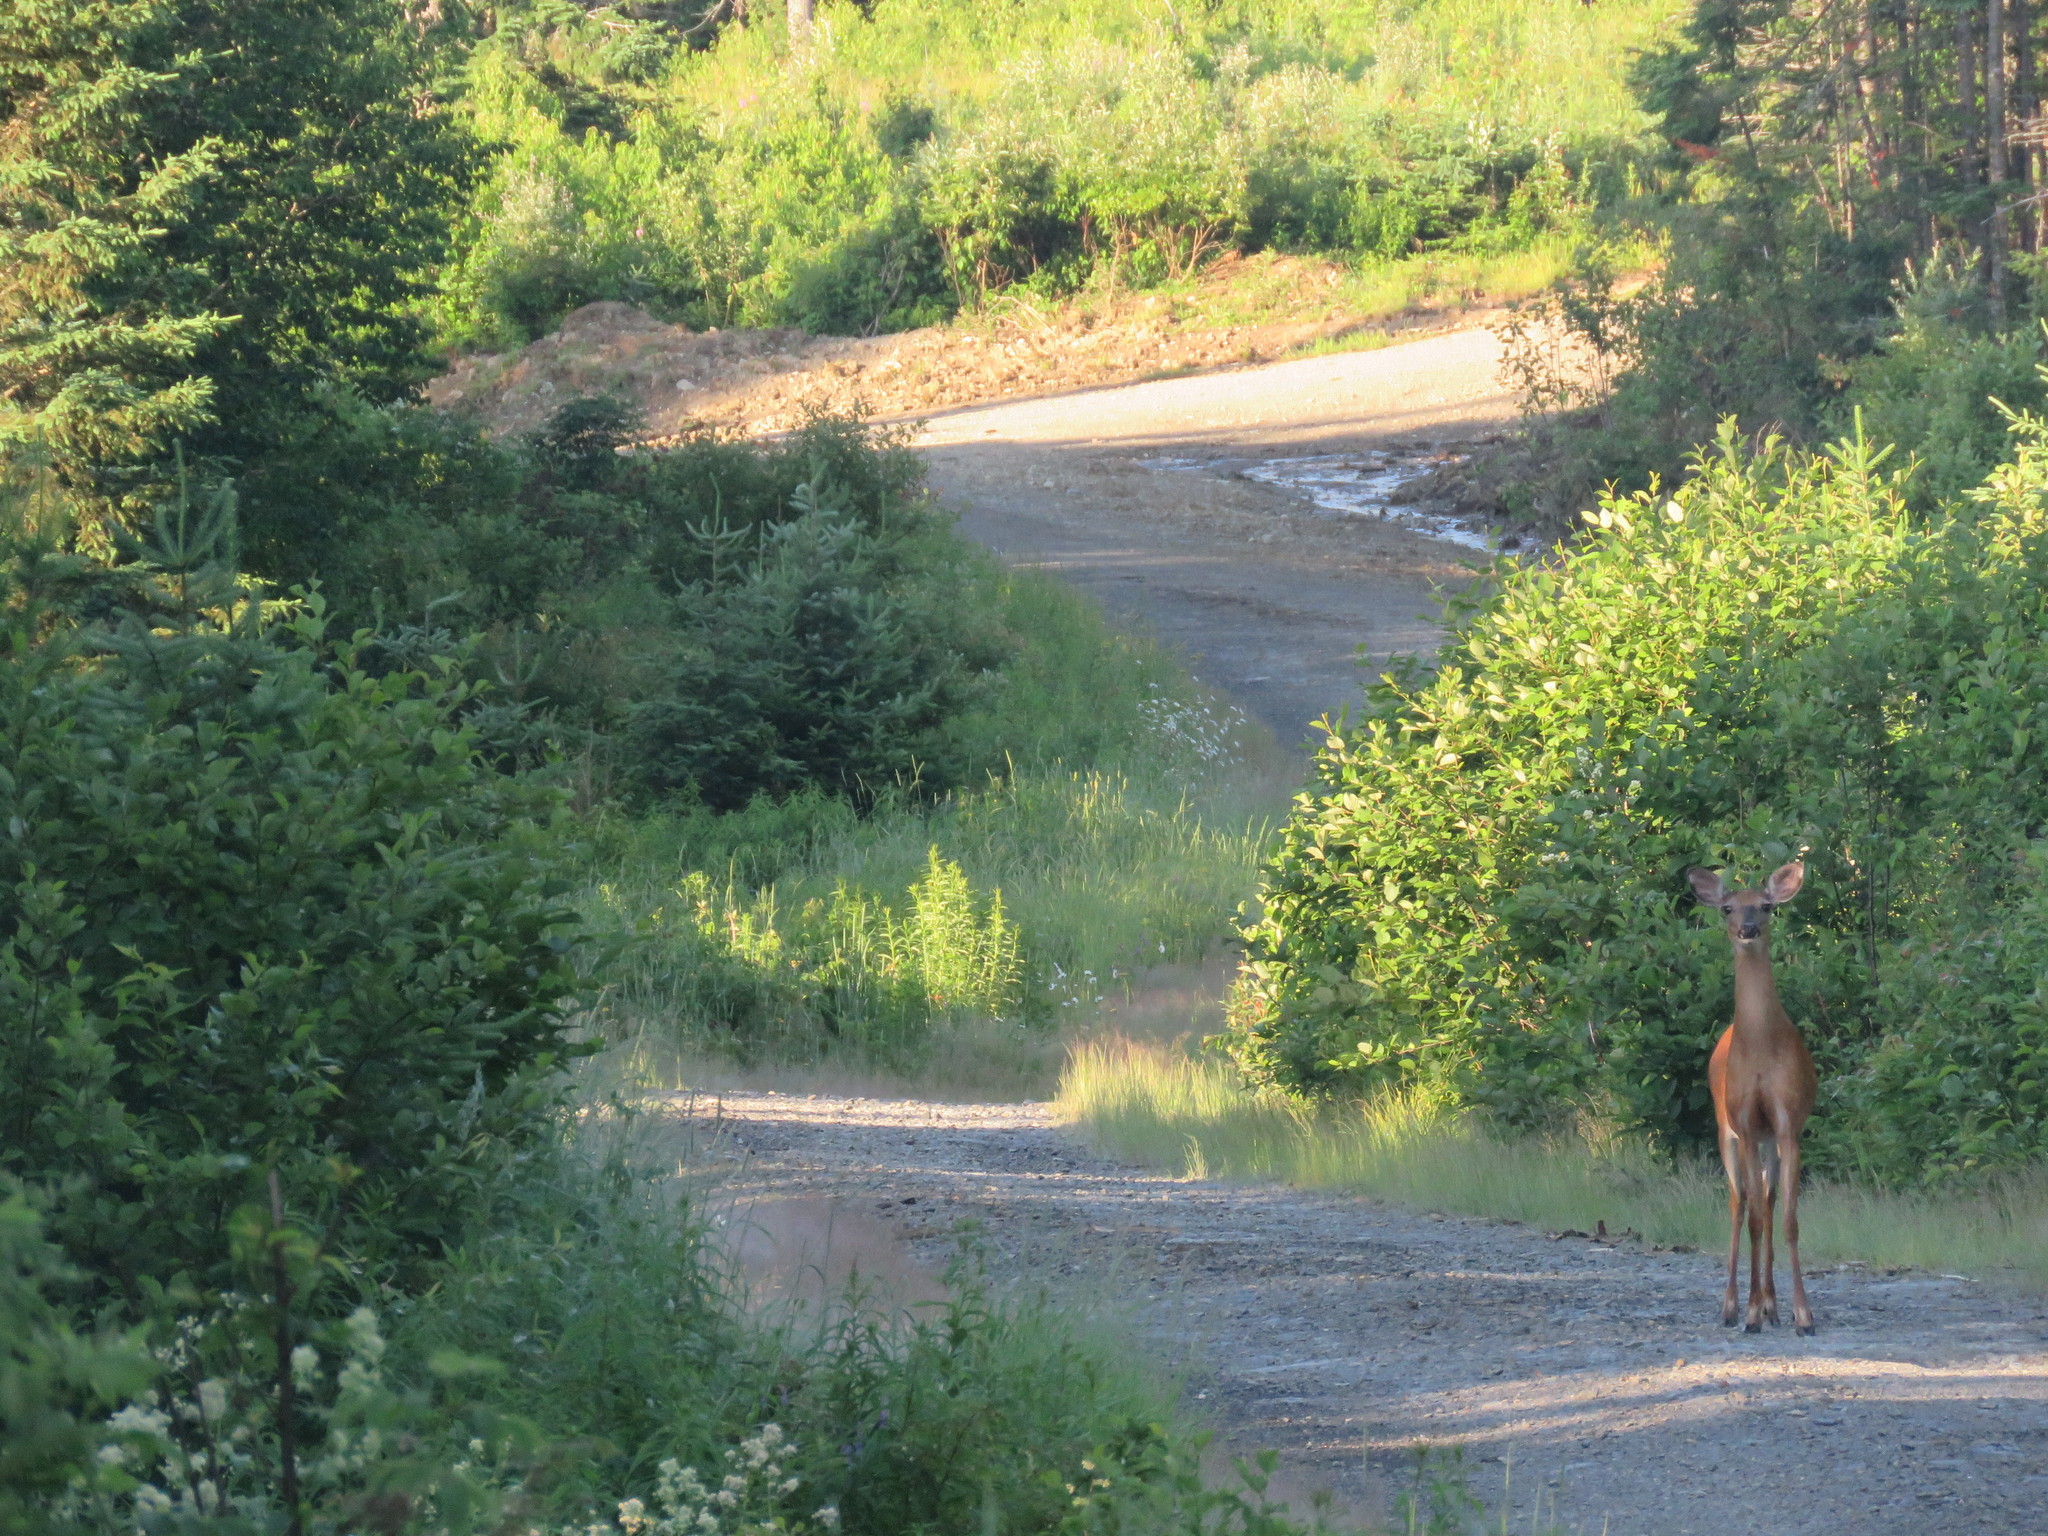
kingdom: Animalia
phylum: Chordata
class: Mammalia
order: Artiodactyla
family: Cervidae
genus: Odocoileus
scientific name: Odocoileus virginianus
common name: White-tailed deer
